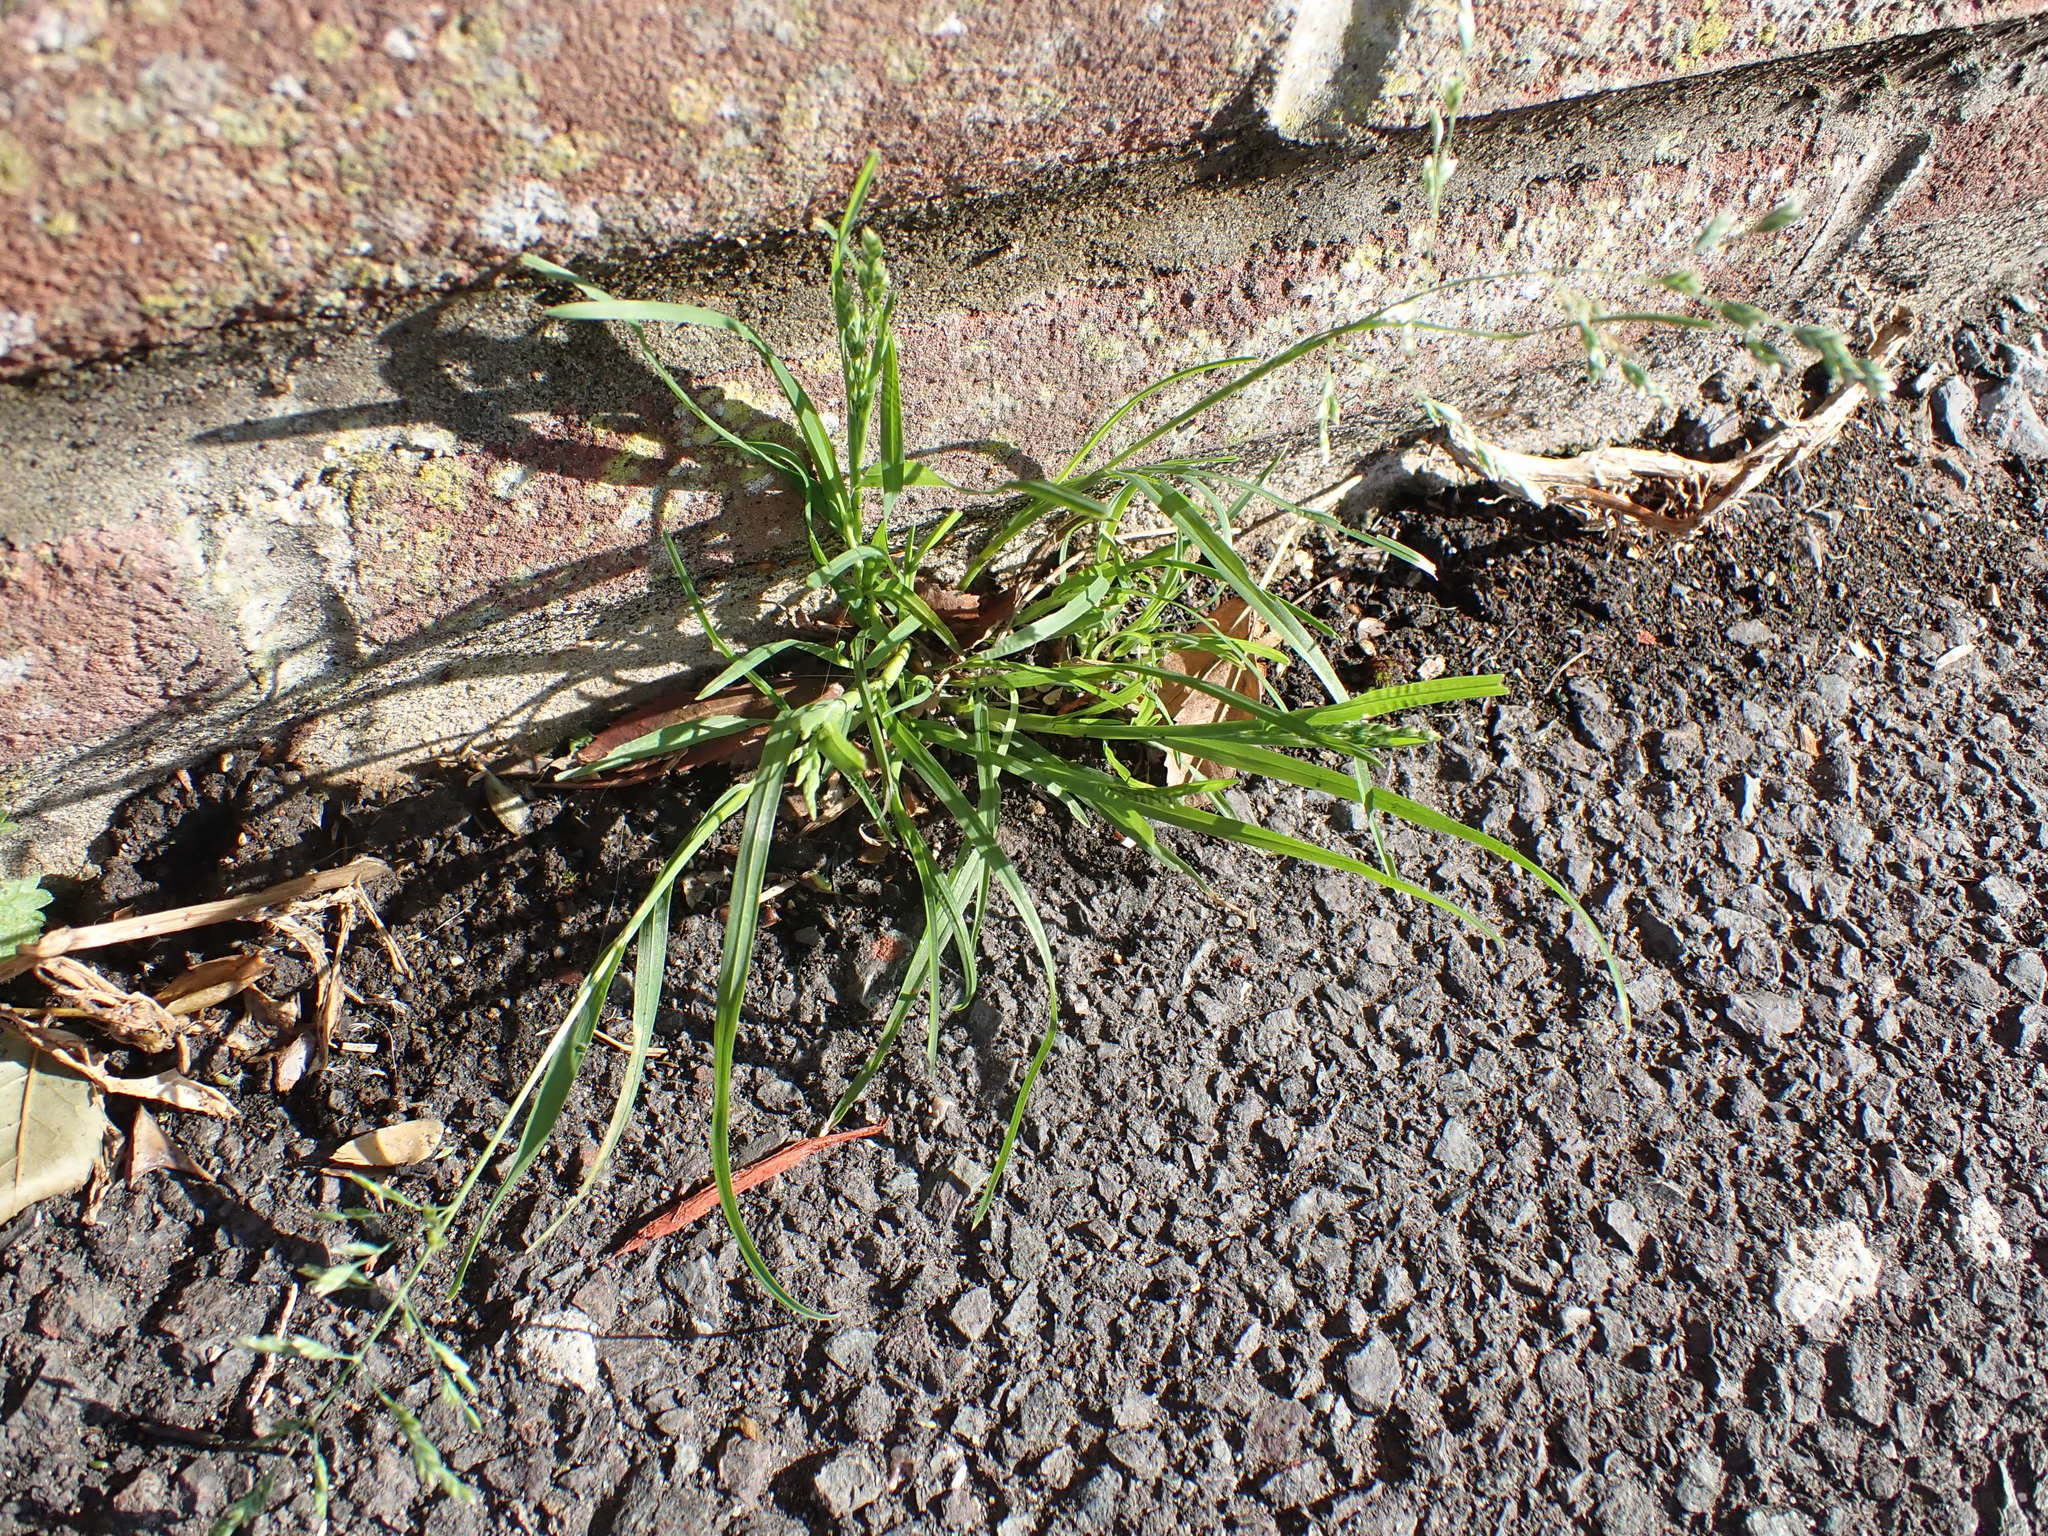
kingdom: Plantae
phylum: Tracheophyta
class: Liliopsida
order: Poales
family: Poaceae
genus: Poa
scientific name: Poa annua
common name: Annual bluegrass
